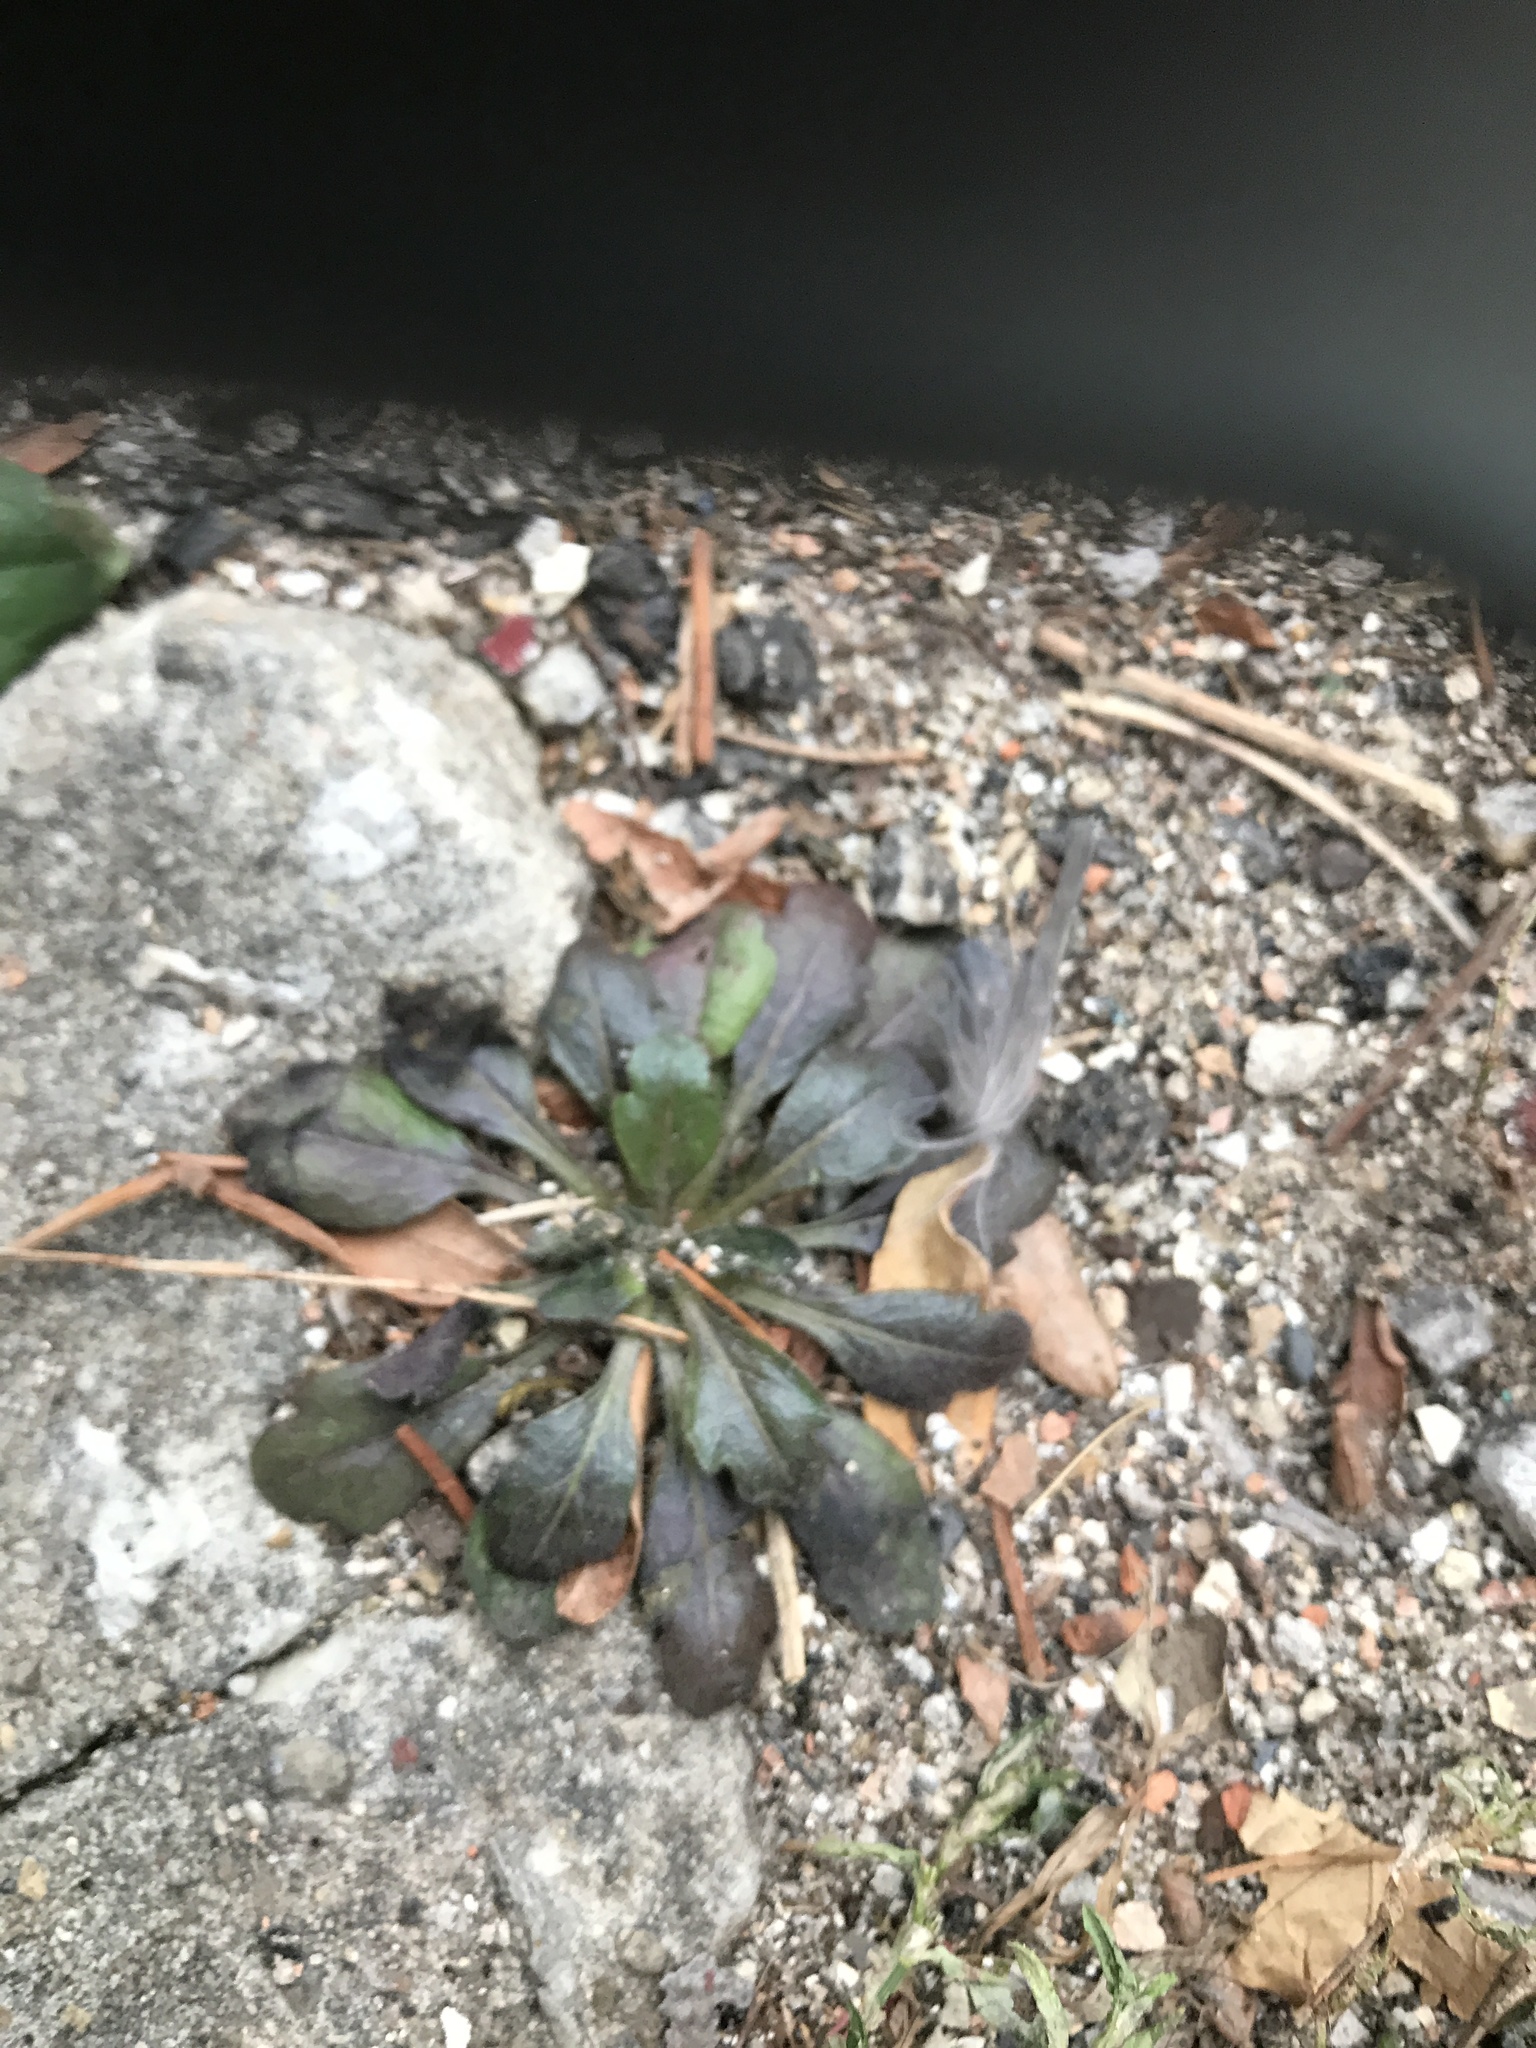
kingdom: Plantae
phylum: Tracheophyta
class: Magnoliopsida
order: Asterales
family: Asteraceae
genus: Erigeron
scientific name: Erigeron canadensis
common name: Canadian fleabane
